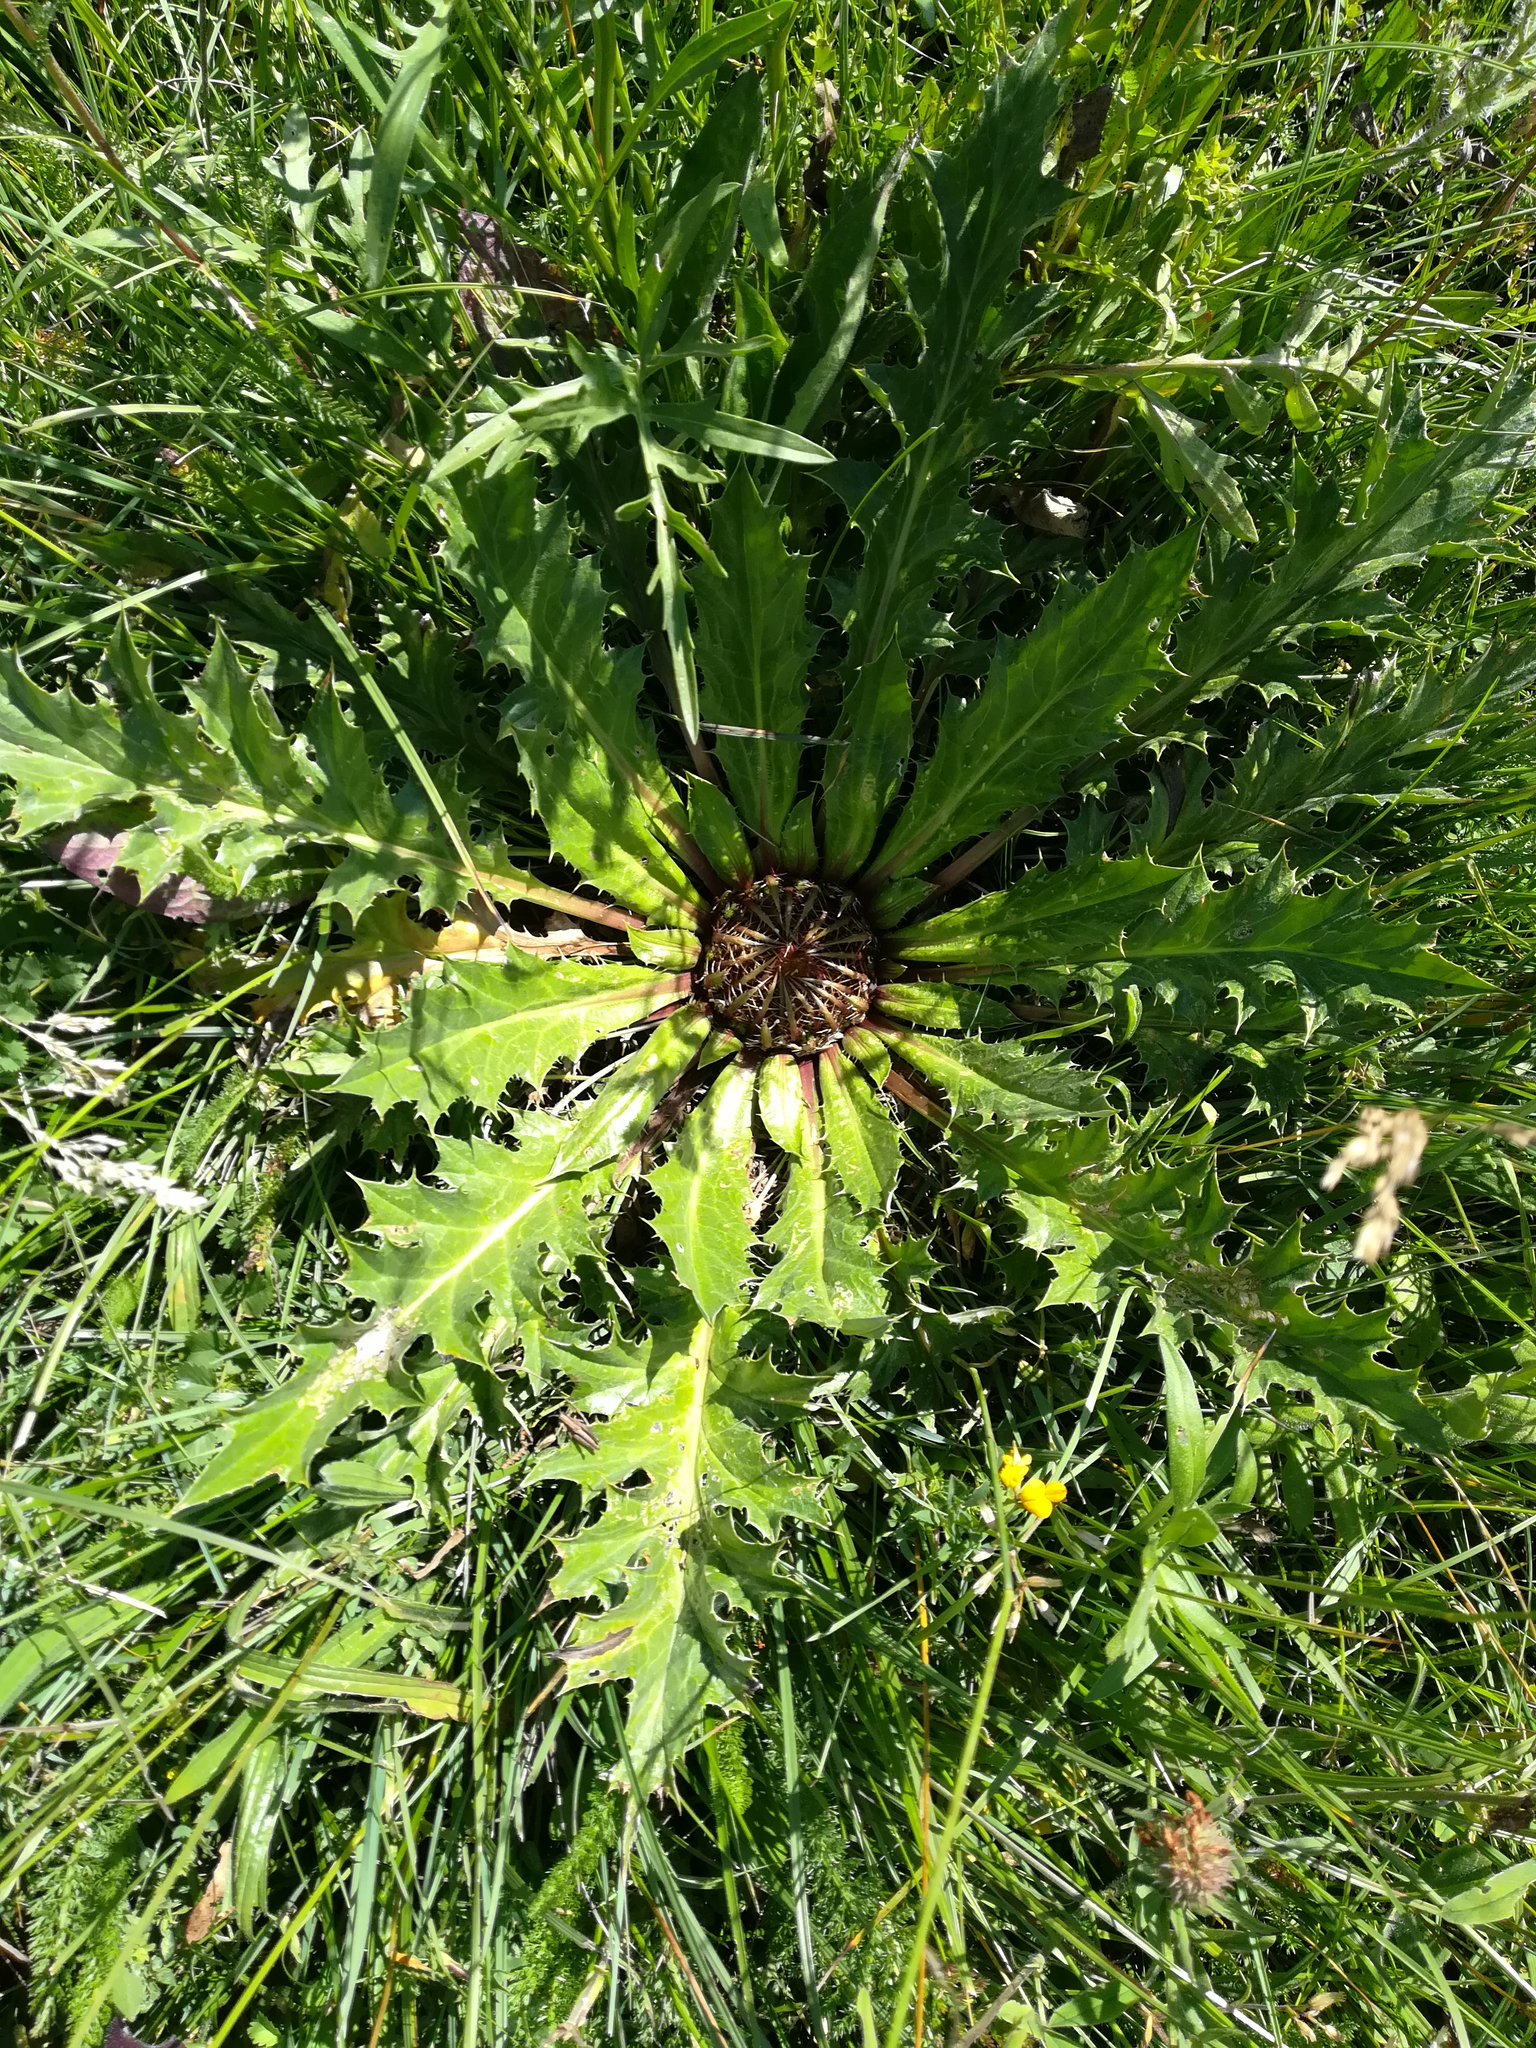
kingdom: Plantae
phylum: Tracheophyta
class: Magnoliopsida
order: Asterales
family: Asteraceae
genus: Carlina
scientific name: Carlina acanthifolia
